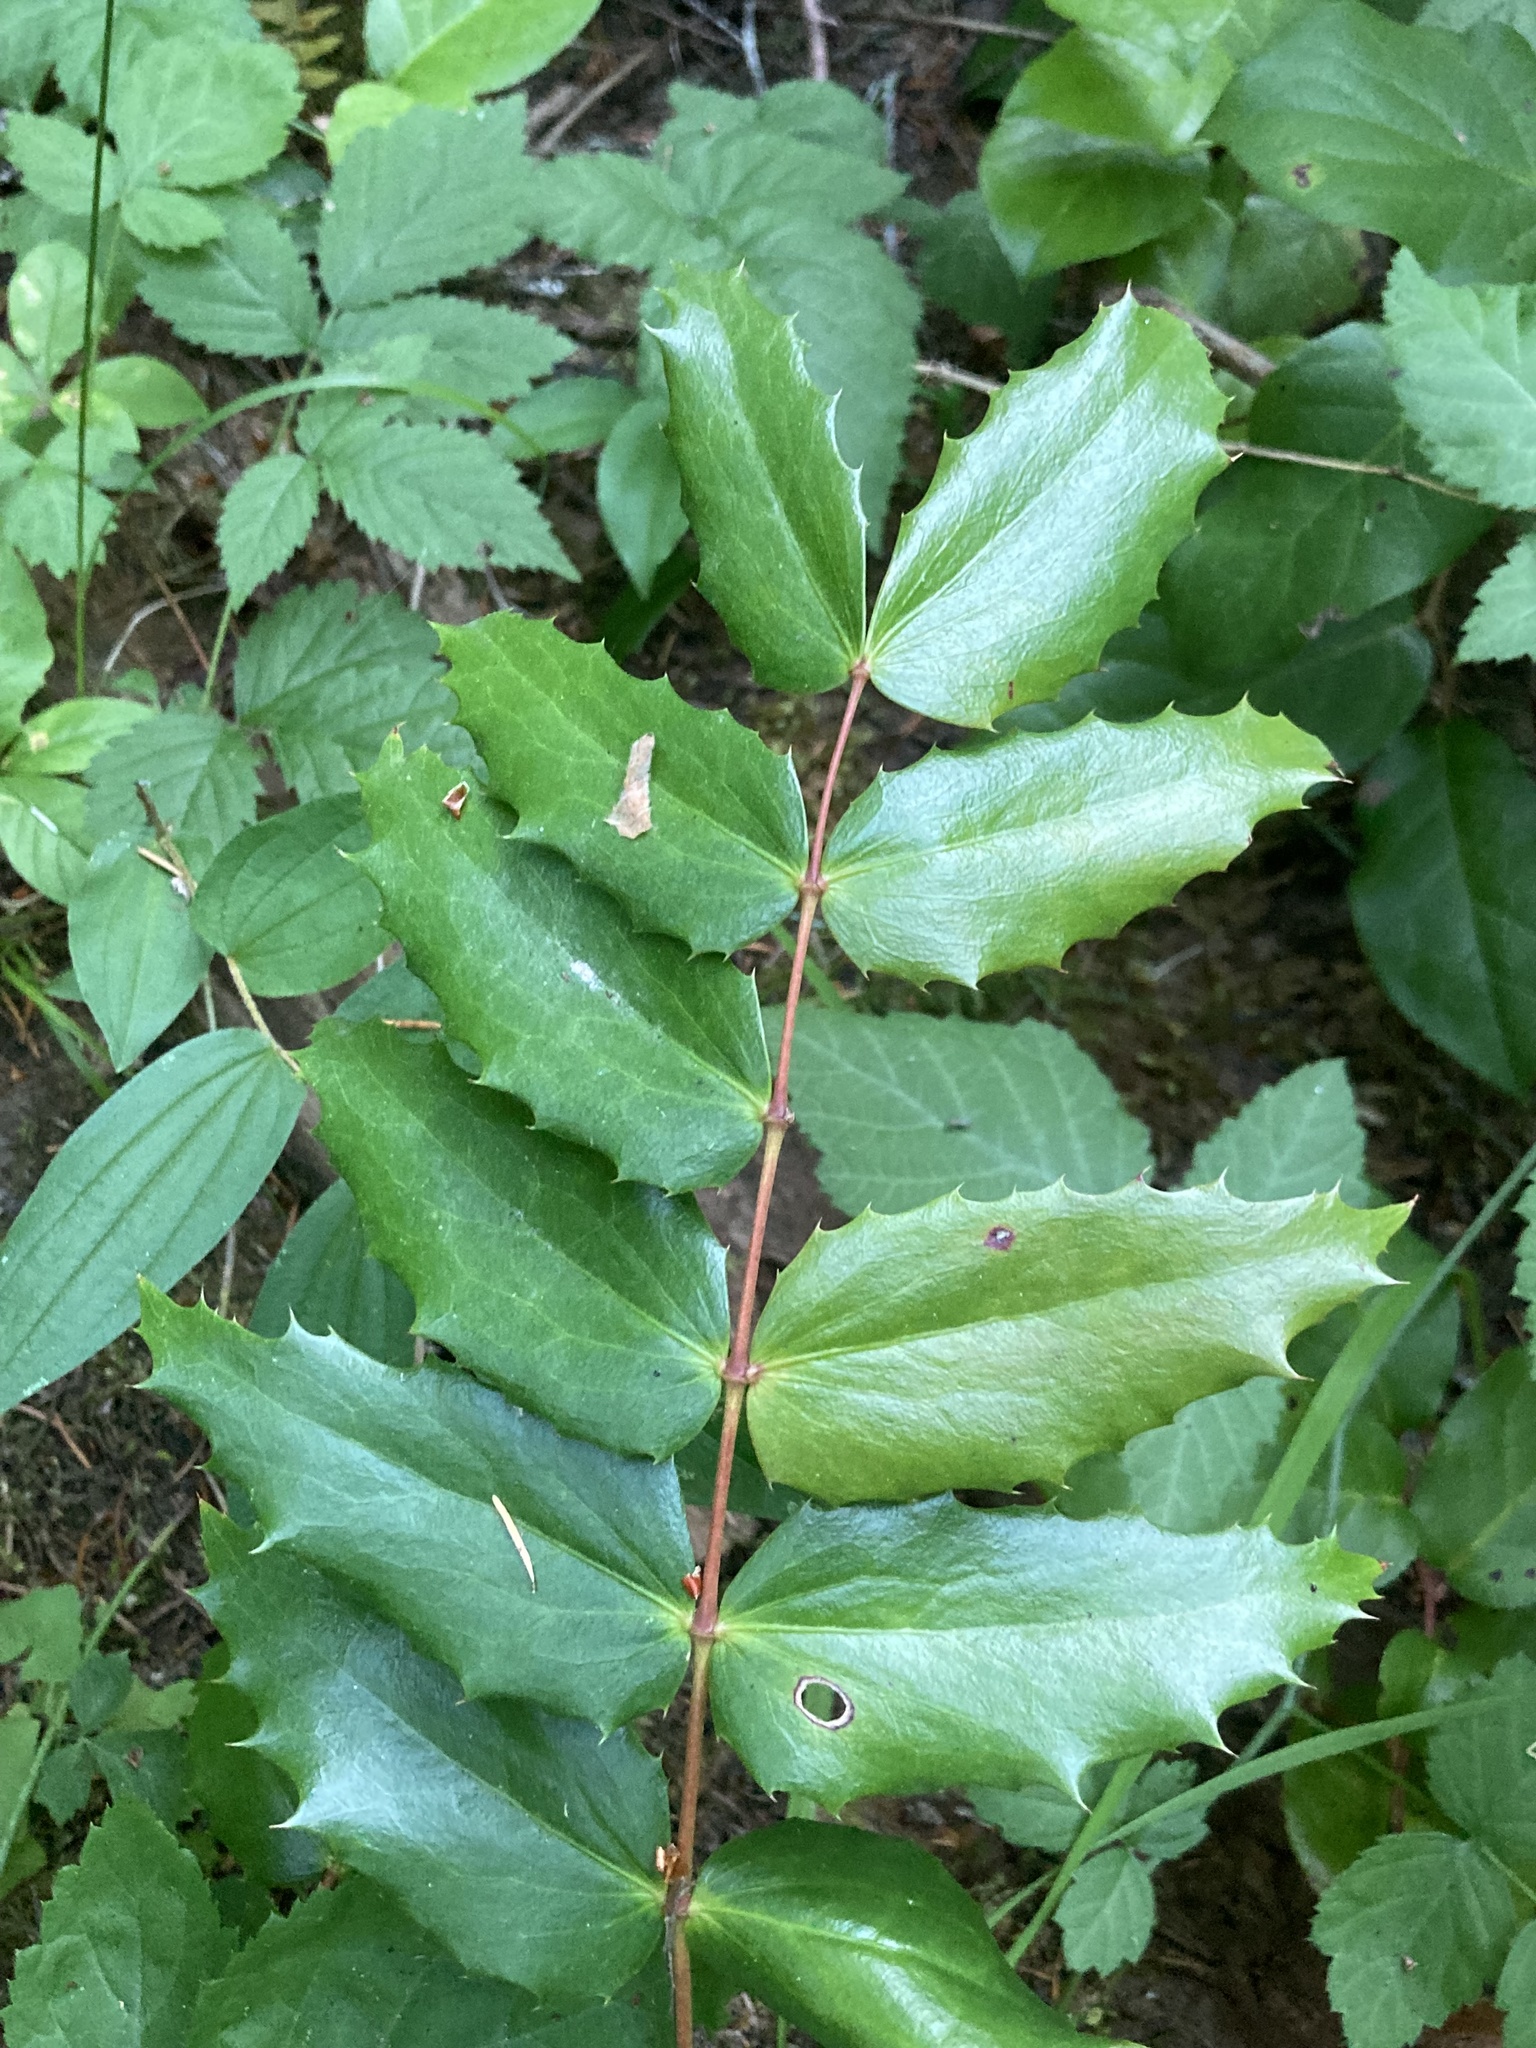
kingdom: Plantae
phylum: Tracheophyta
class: Magnoliopsida
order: Ranunculales
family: Berberidaceae
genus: Mahonia
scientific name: Mahonia nervosa
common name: Cascade oregon-grape
